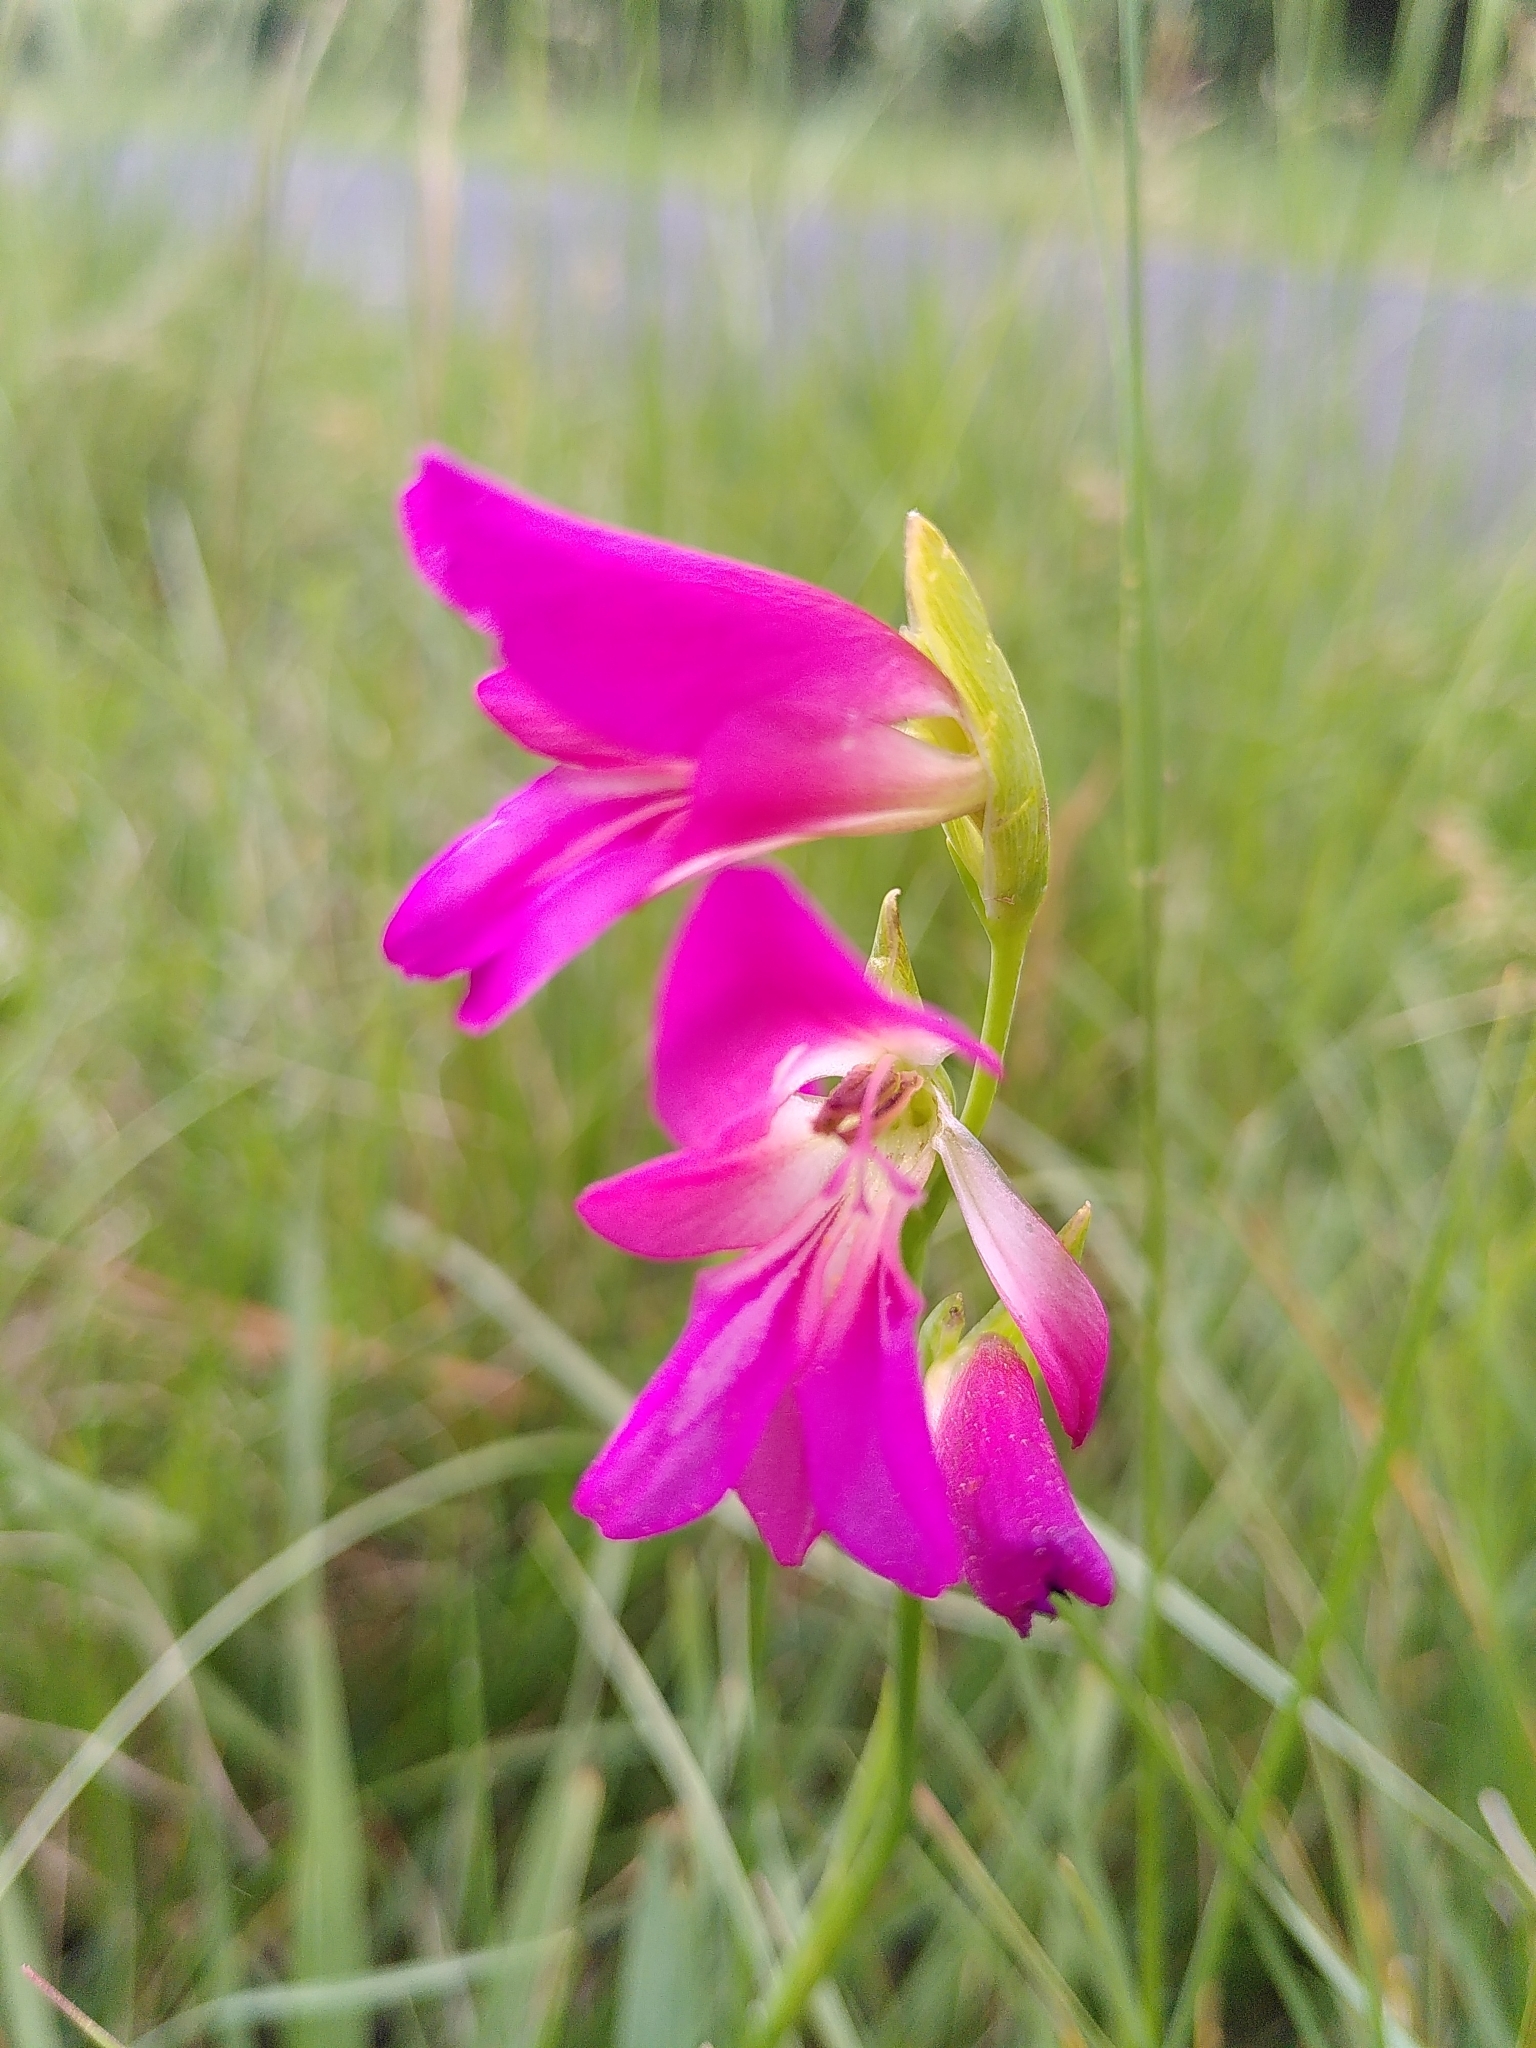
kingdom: Plantae
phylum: Tracheophyta
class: Liliopsida
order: Asparagales
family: Iridaceae
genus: Gladiolus
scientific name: Gladiolus italicus
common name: Field gladiolus
